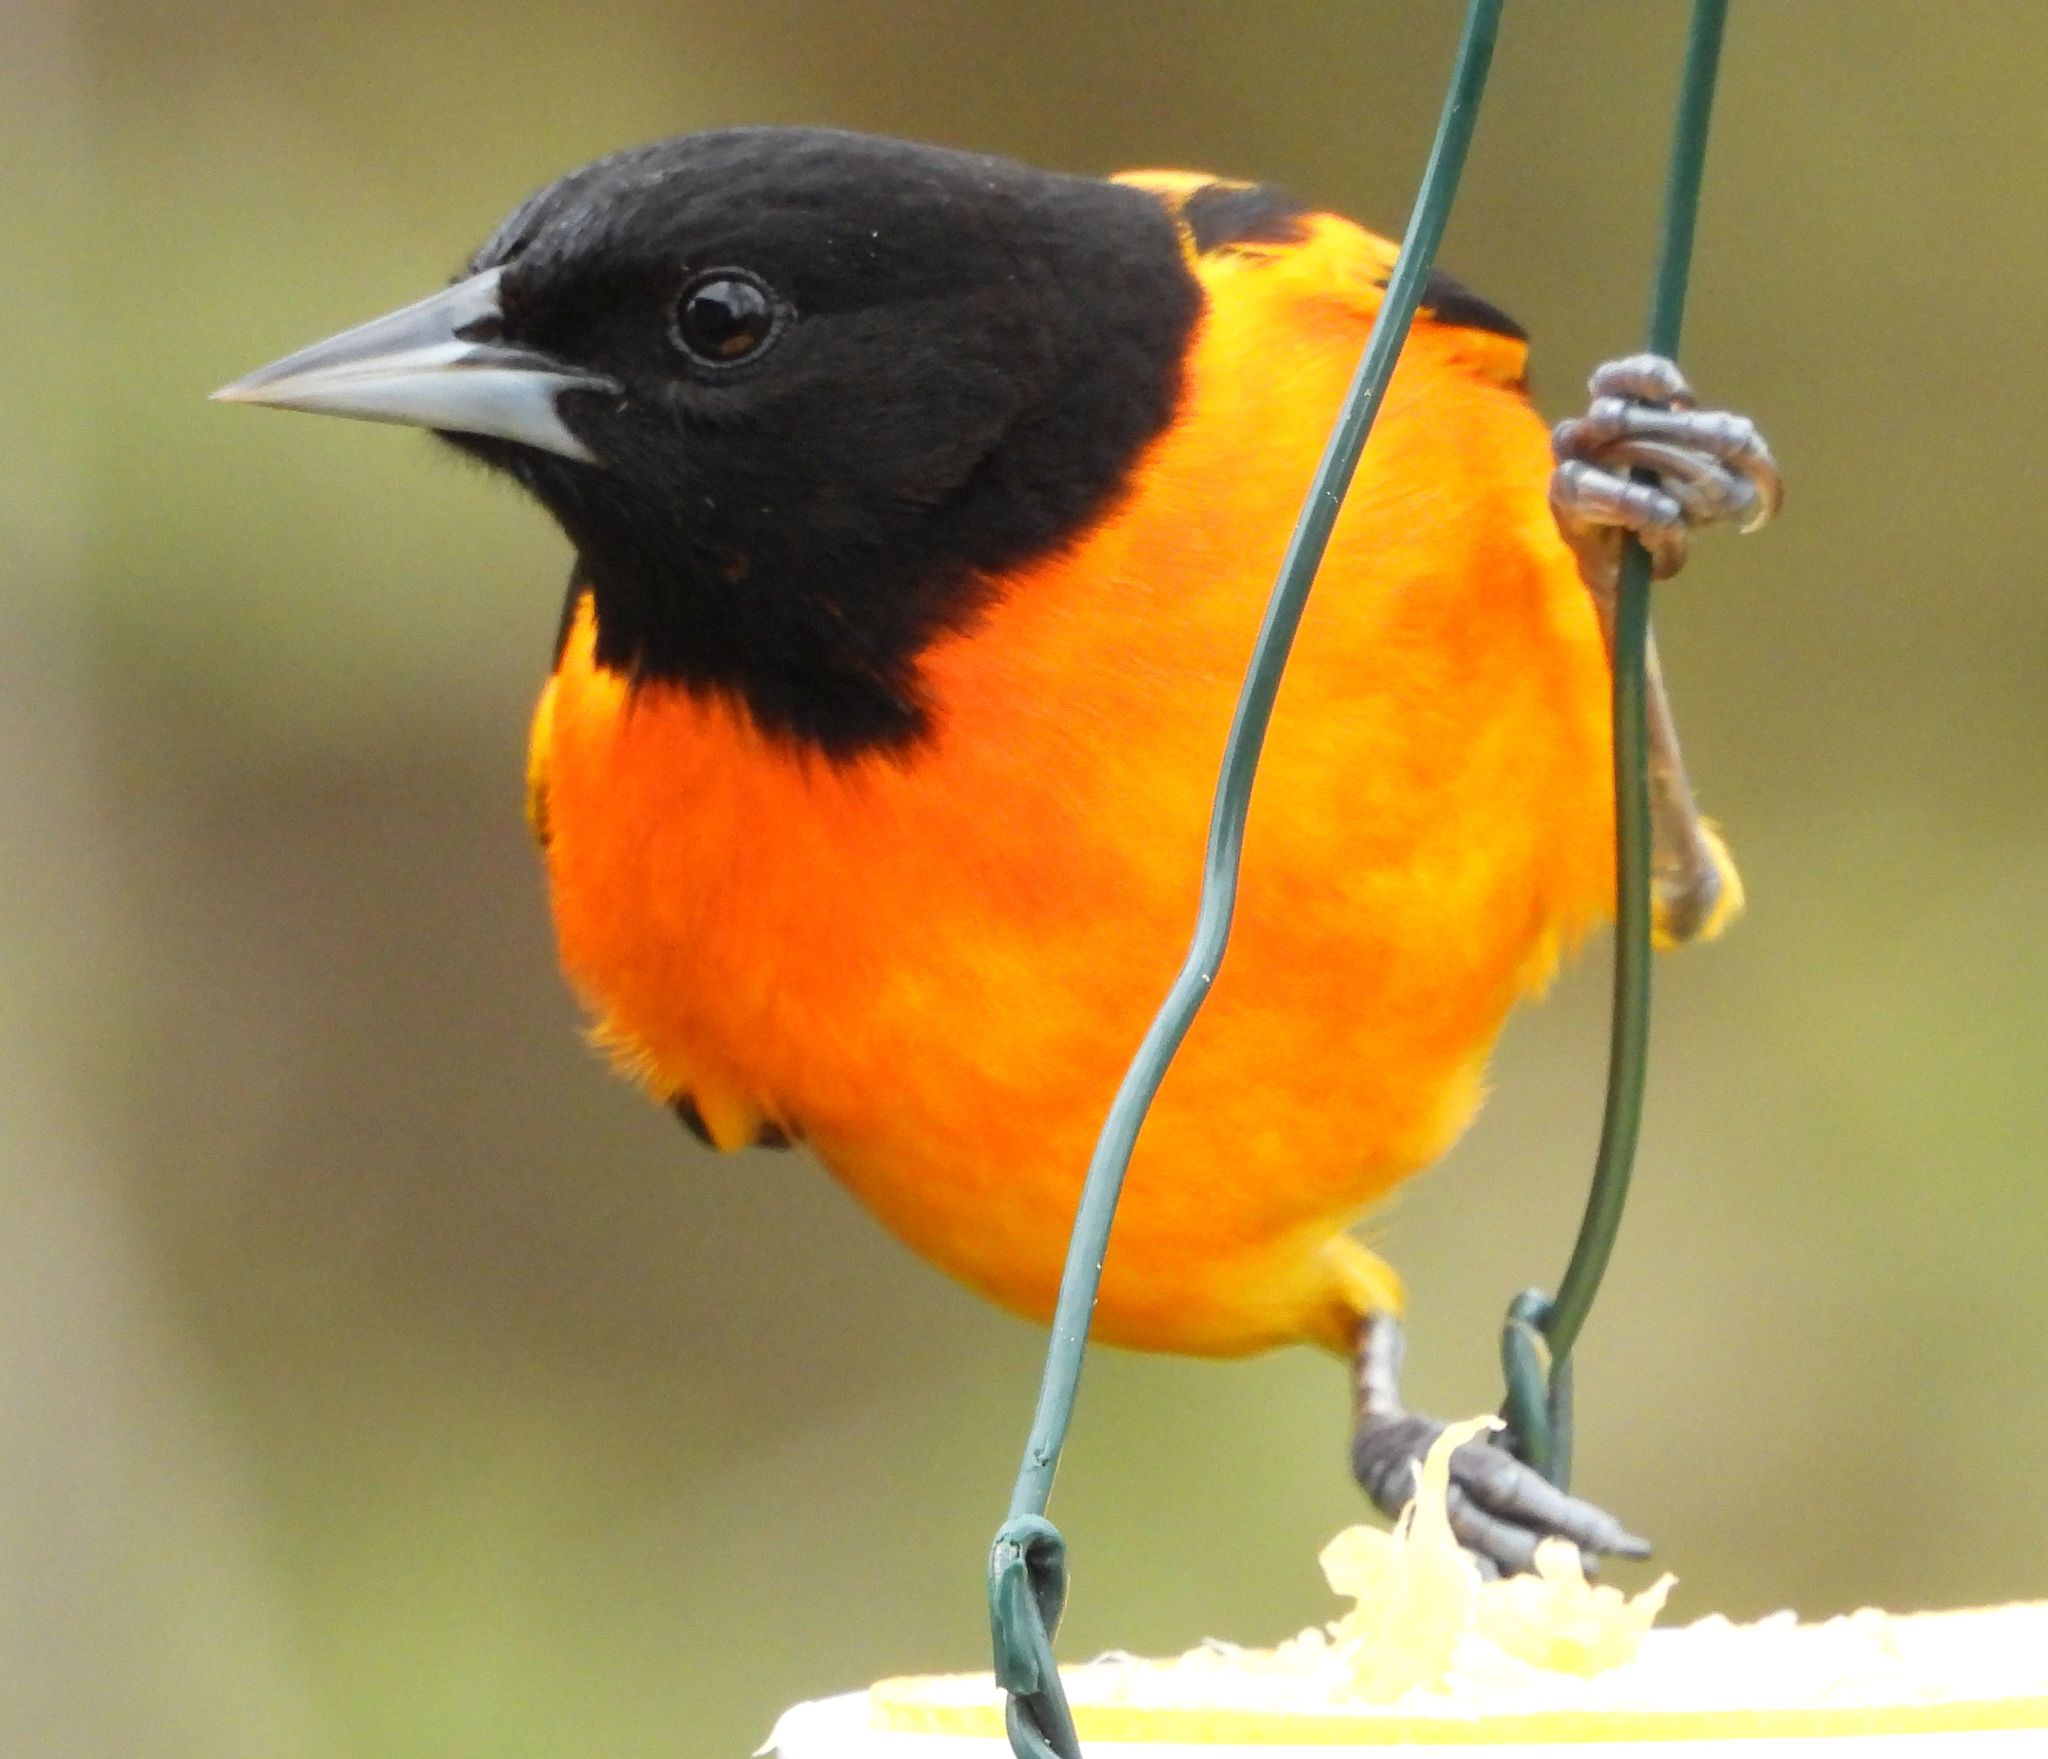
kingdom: Animalia
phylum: Chordata
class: Aves
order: Passeriformes
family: Icteridae
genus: Icterus
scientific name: Icterus galbula
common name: Baltimore oriole
